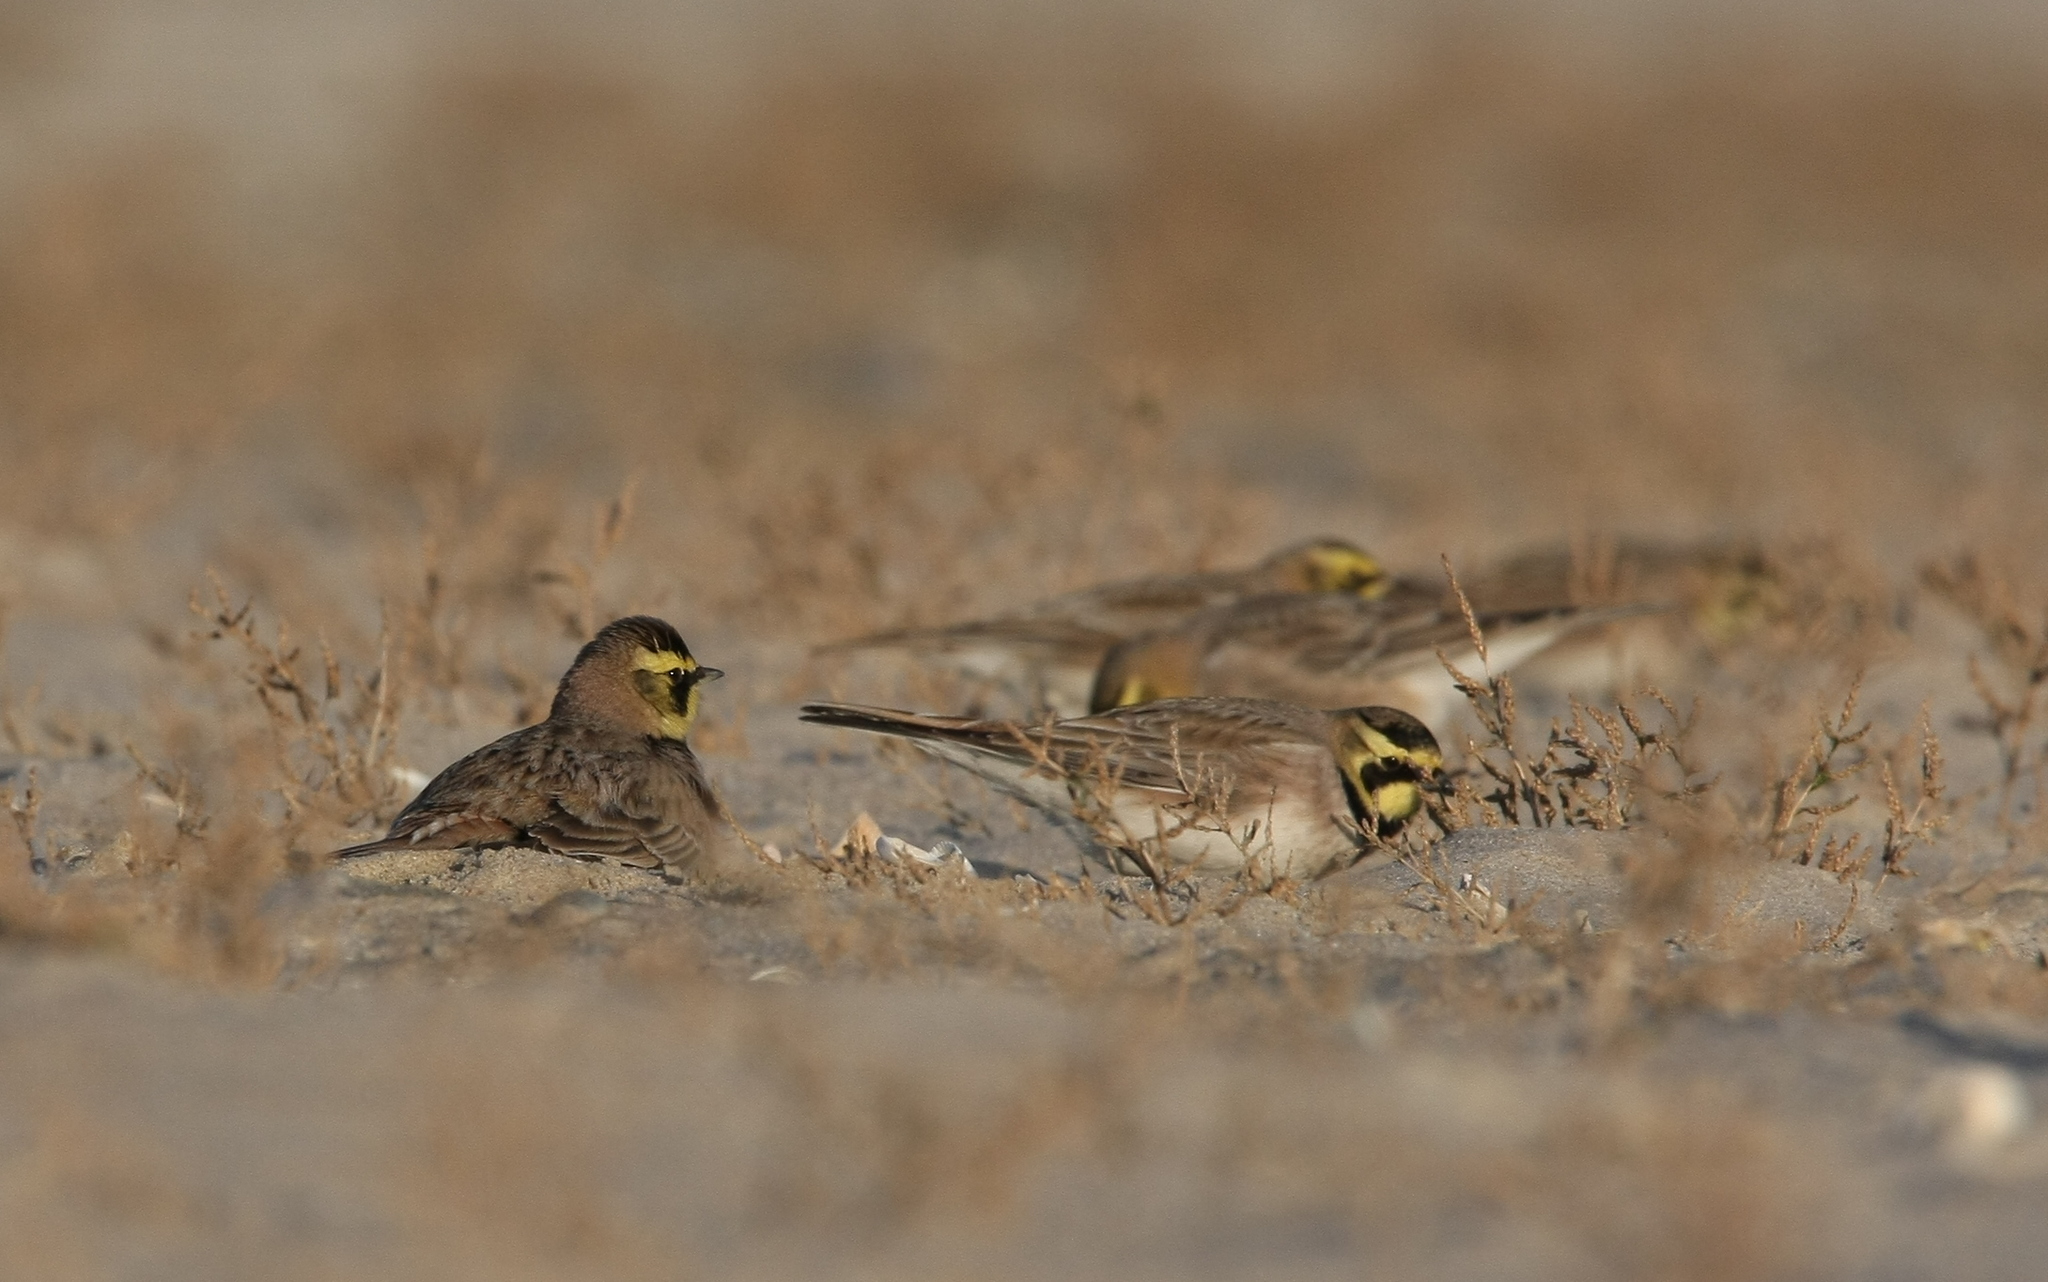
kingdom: Animalia
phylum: Chordata
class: Aves
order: Passeriformes
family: Alaudidae
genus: Eremophila
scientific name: Eremophila alpestris
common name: Horned lark
